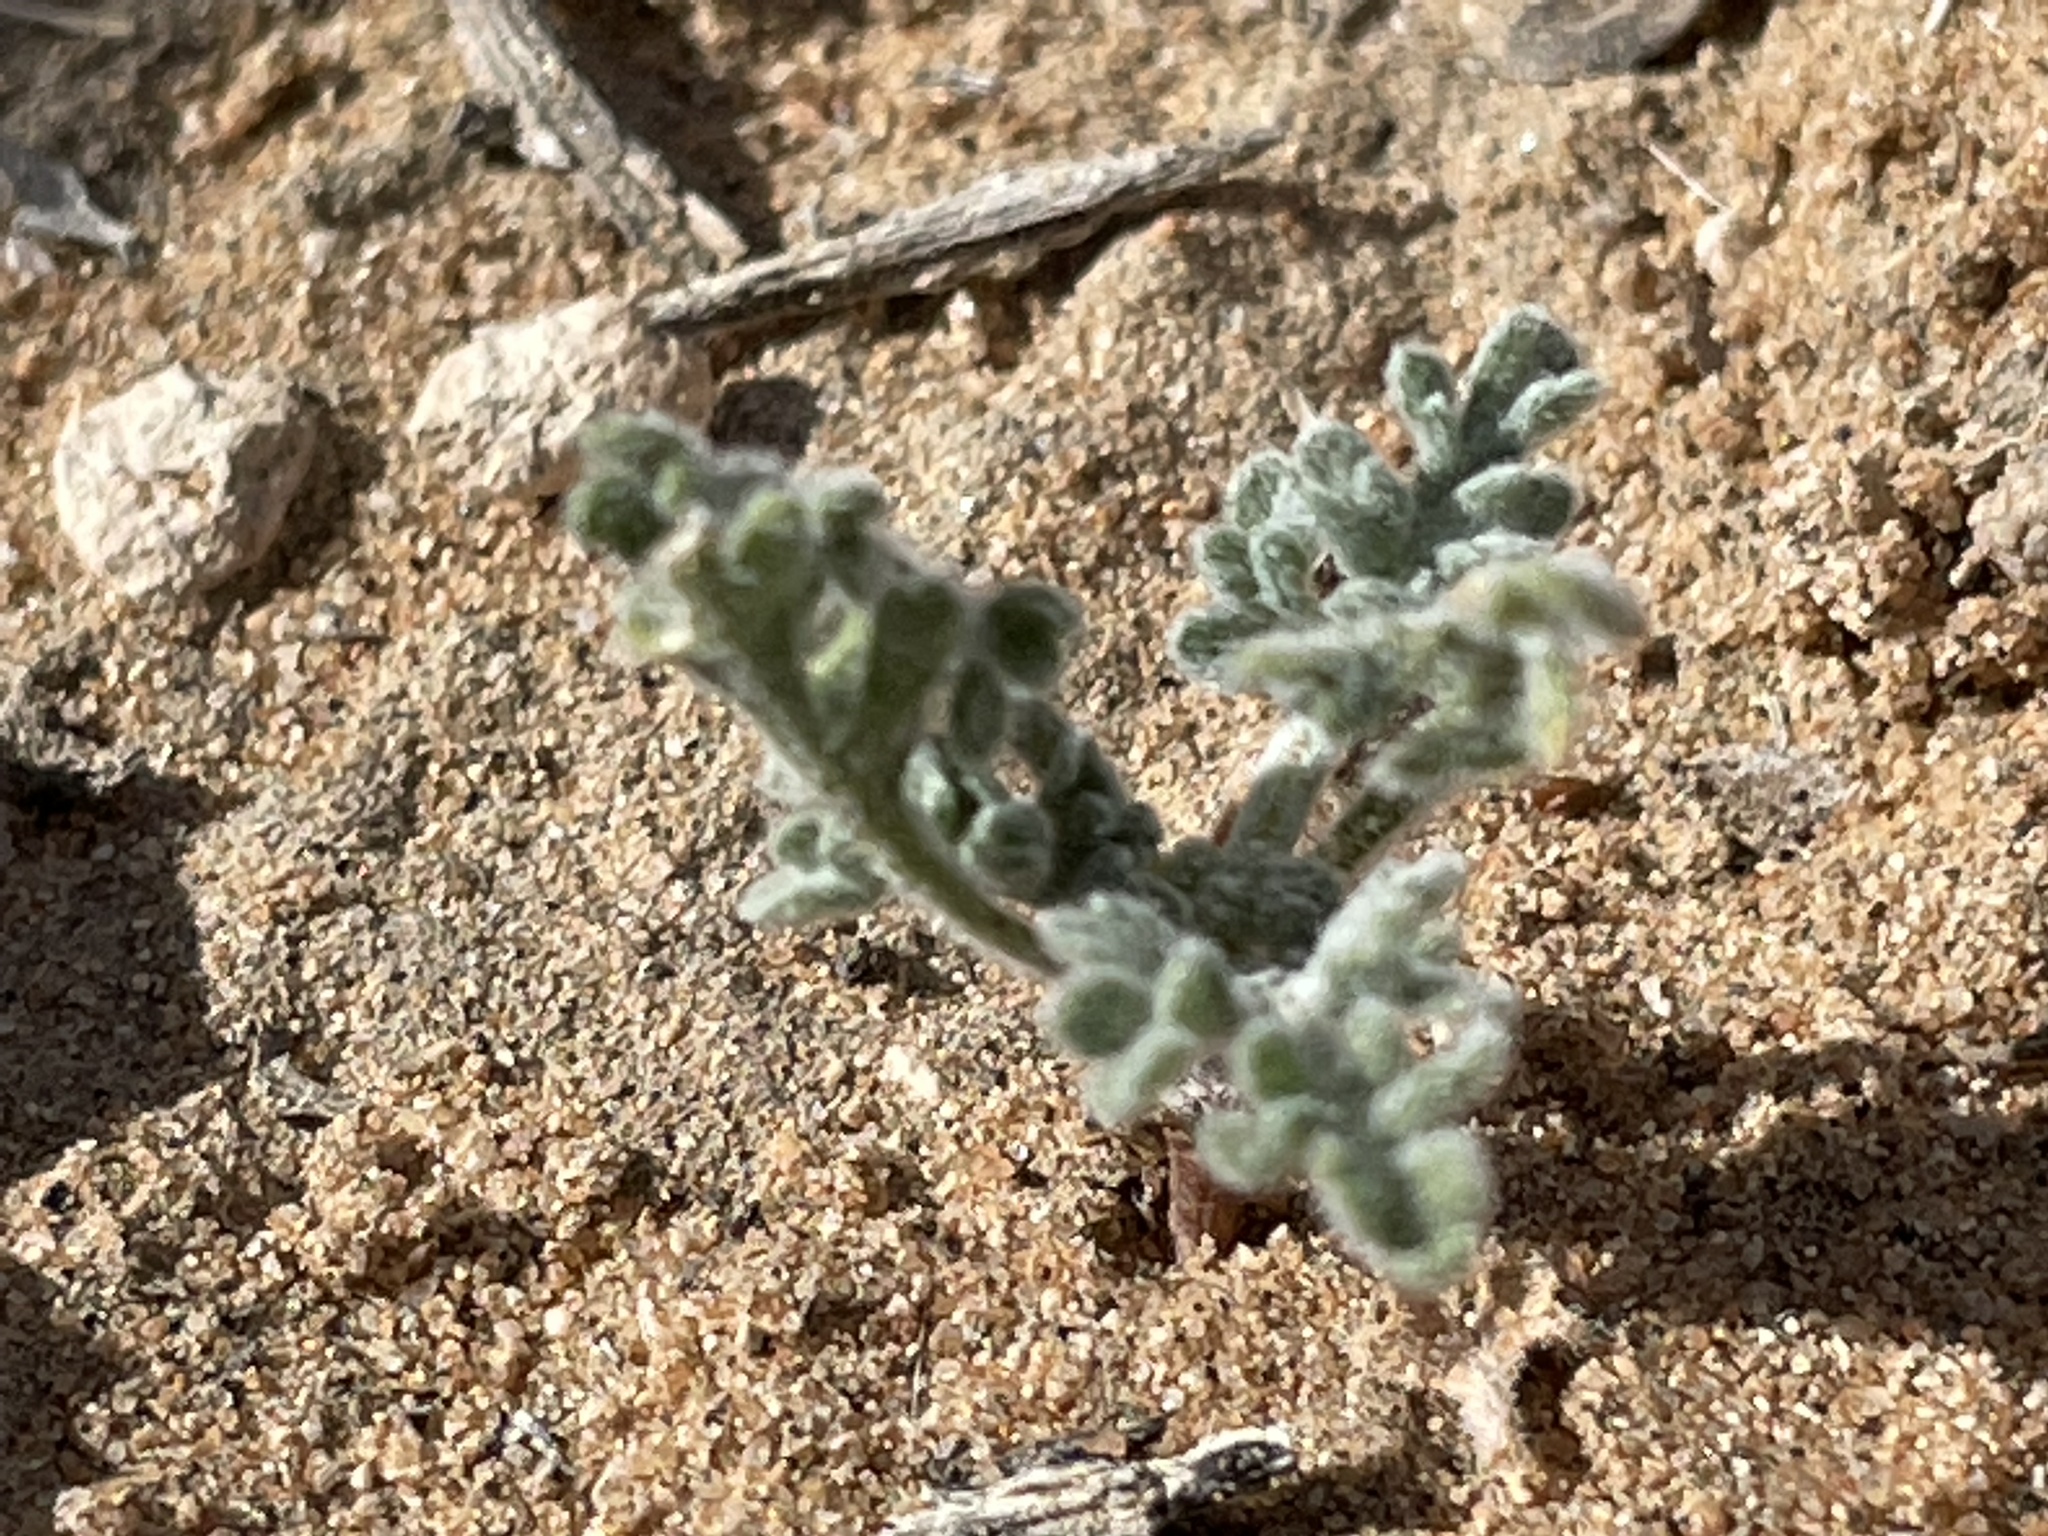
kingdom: Plantae
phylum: Tracheophyta
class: Magnoliopsida
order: Asterales
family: Asteraceae
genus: Ambrosia
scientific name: Ambrosia dumosa
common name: Bur-sage
